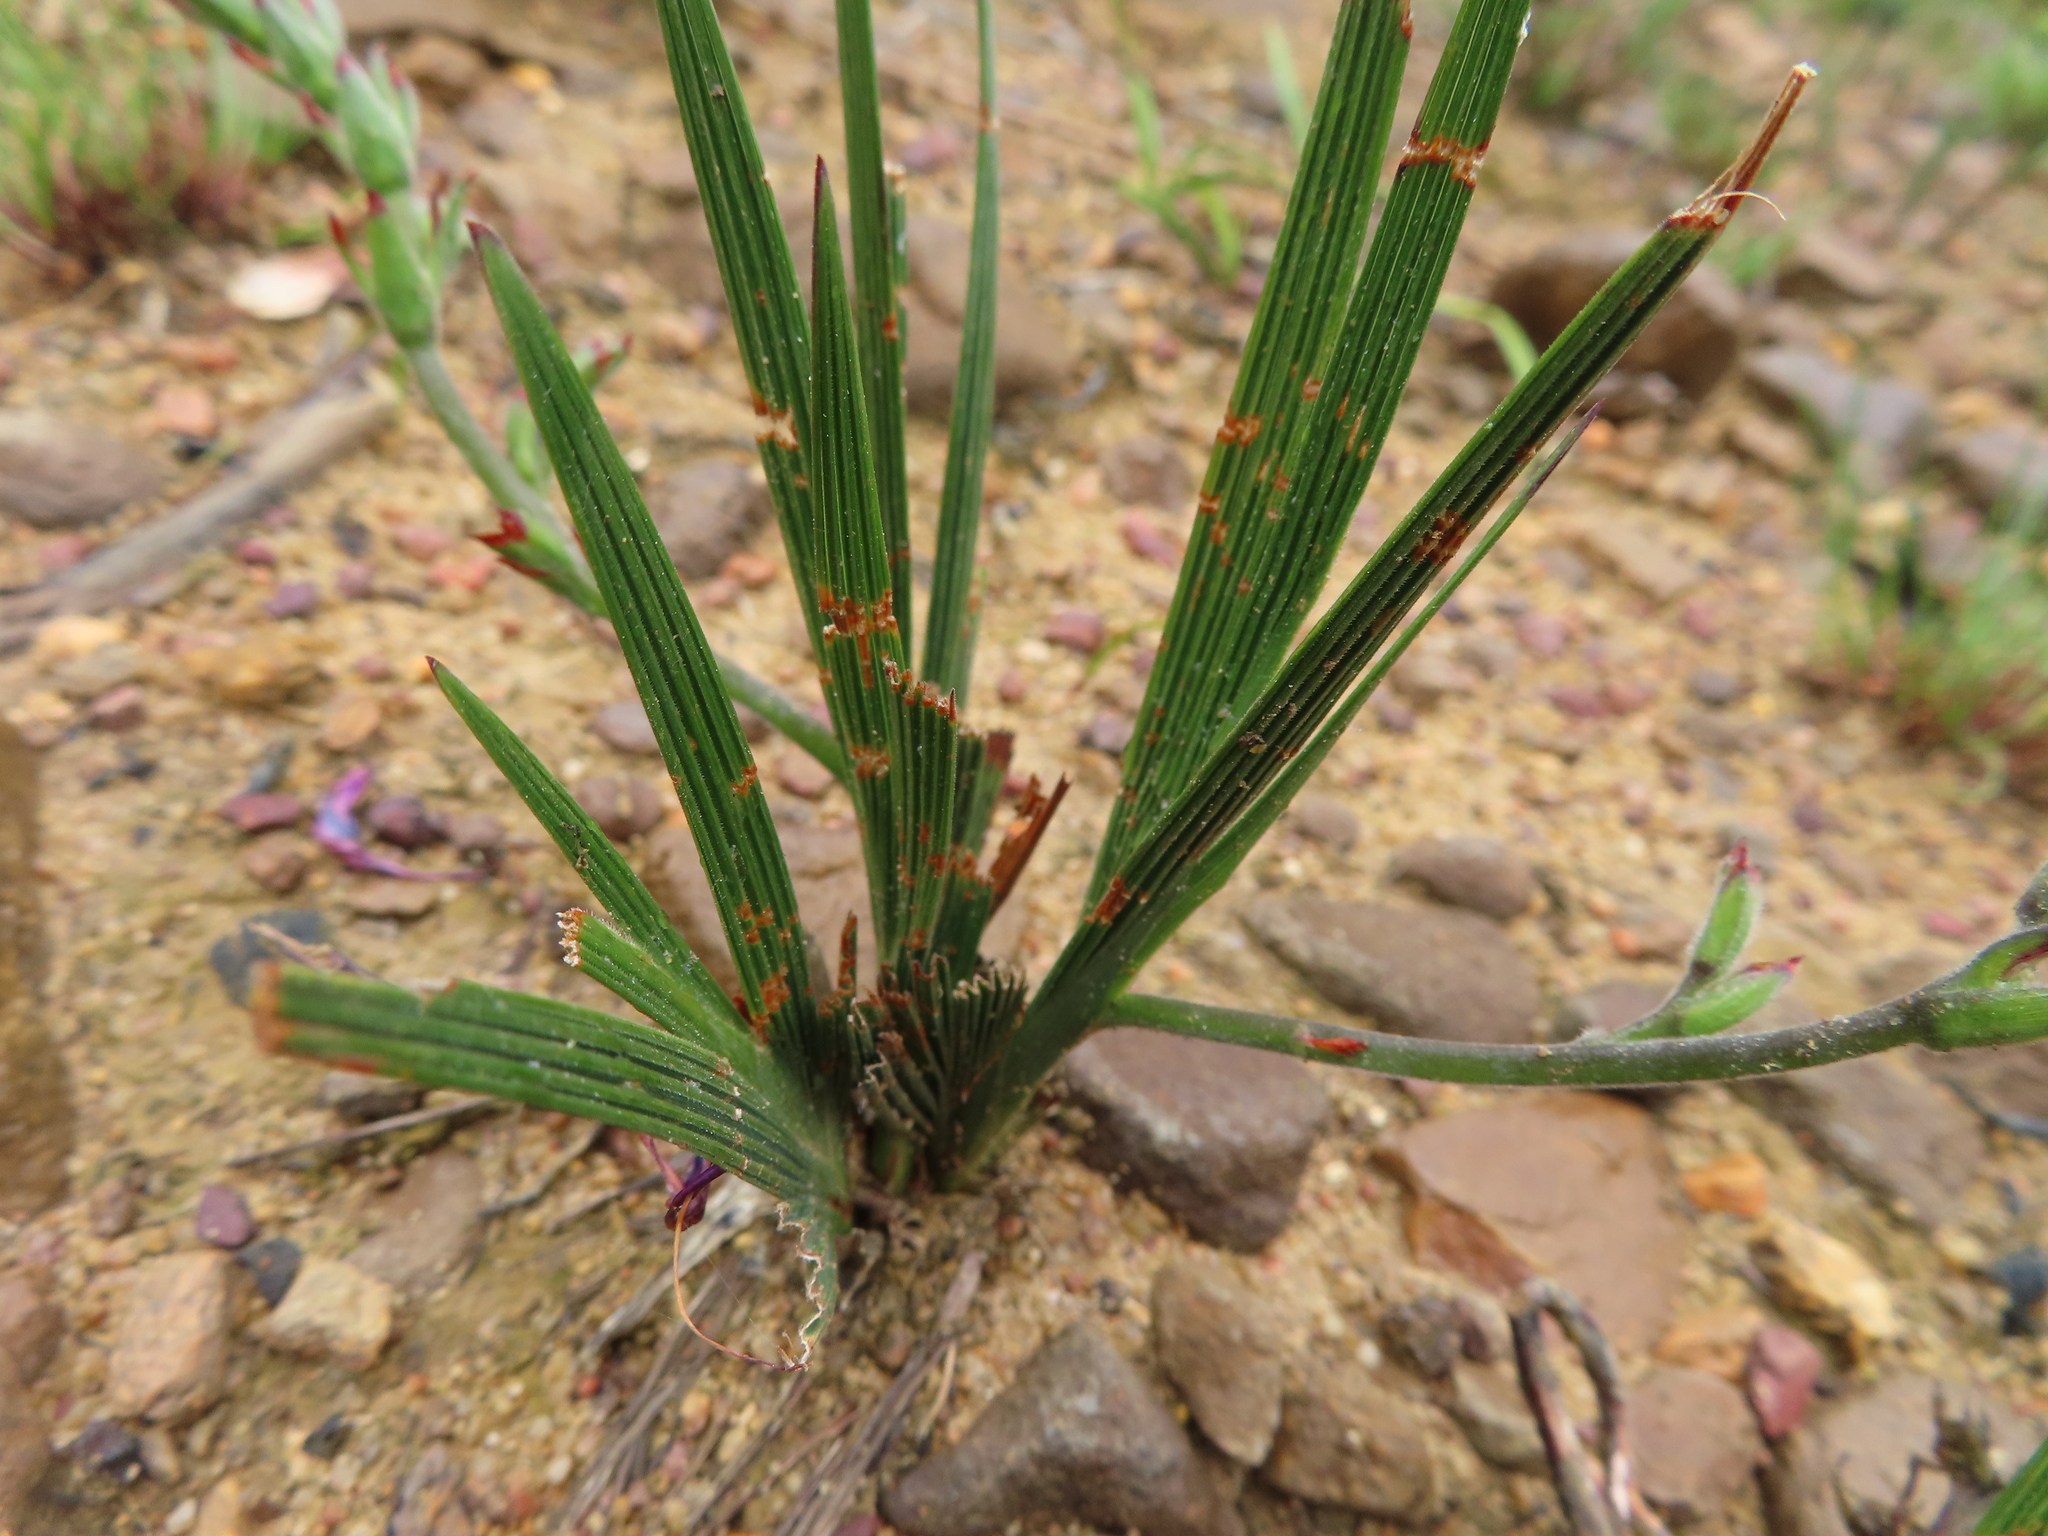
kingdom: Plantae
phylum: Tracheophyta
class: Liliopsida
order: Asparagales
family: Iridaceae
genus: Babiana
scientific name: Babiana angustifolia
